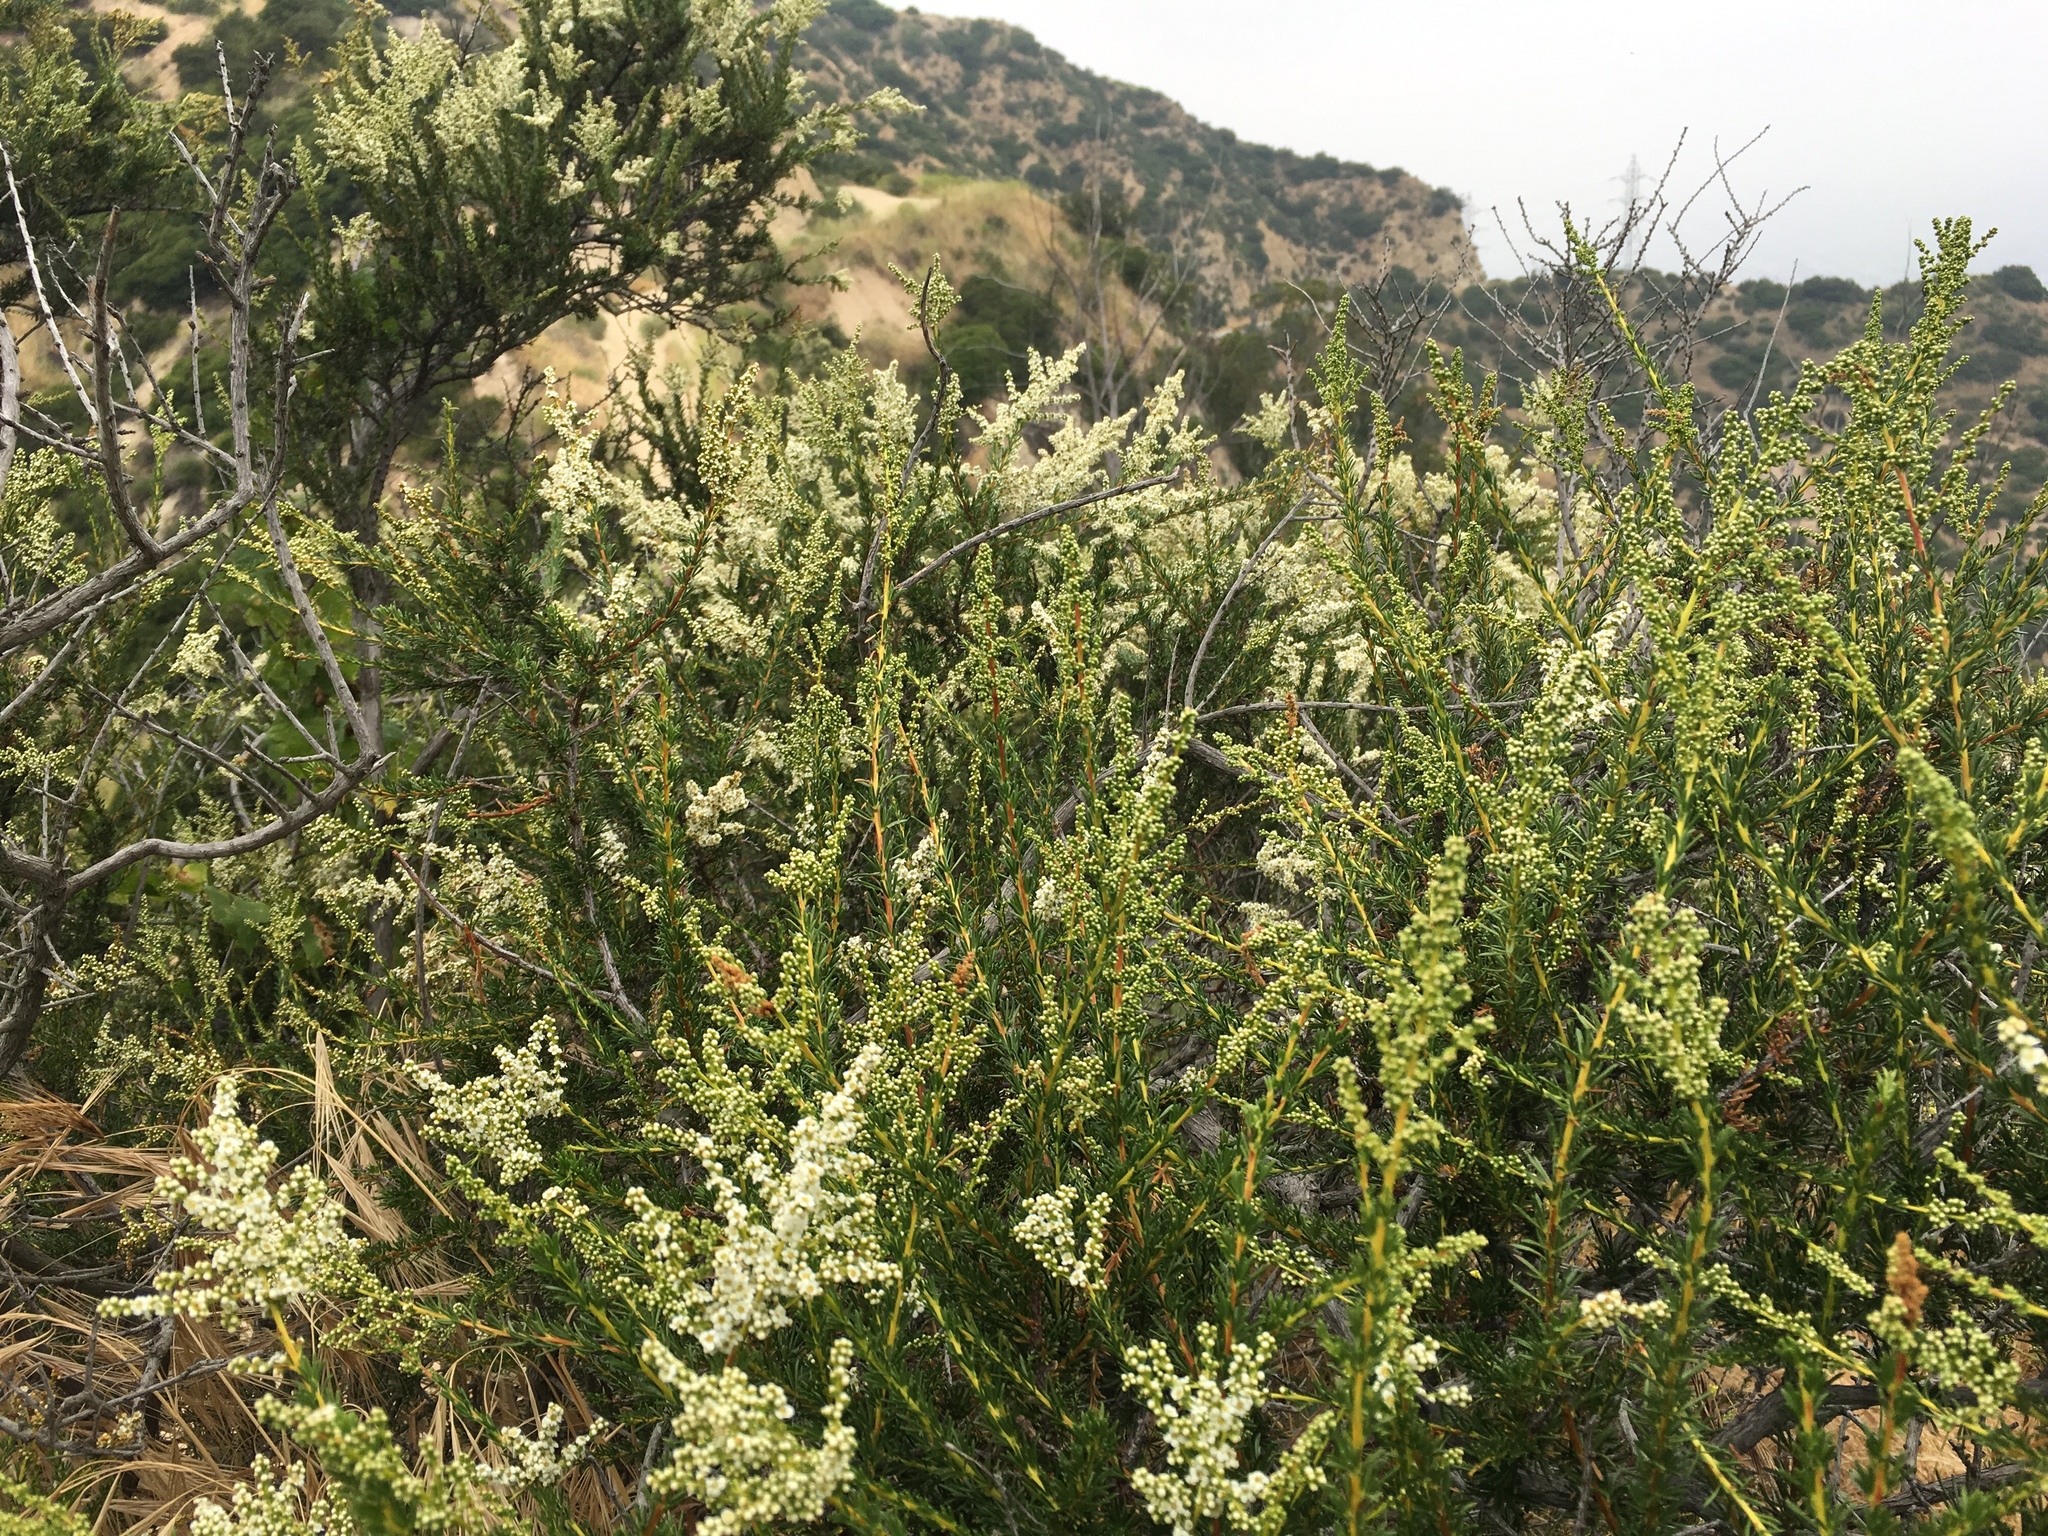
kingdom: Plantae
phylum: Tracheophyta
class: Magnoliopsida
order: Rosales
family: Rosaceae
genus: Adenostoma
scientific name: Adenostoma fasciculatum
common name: Chamise
